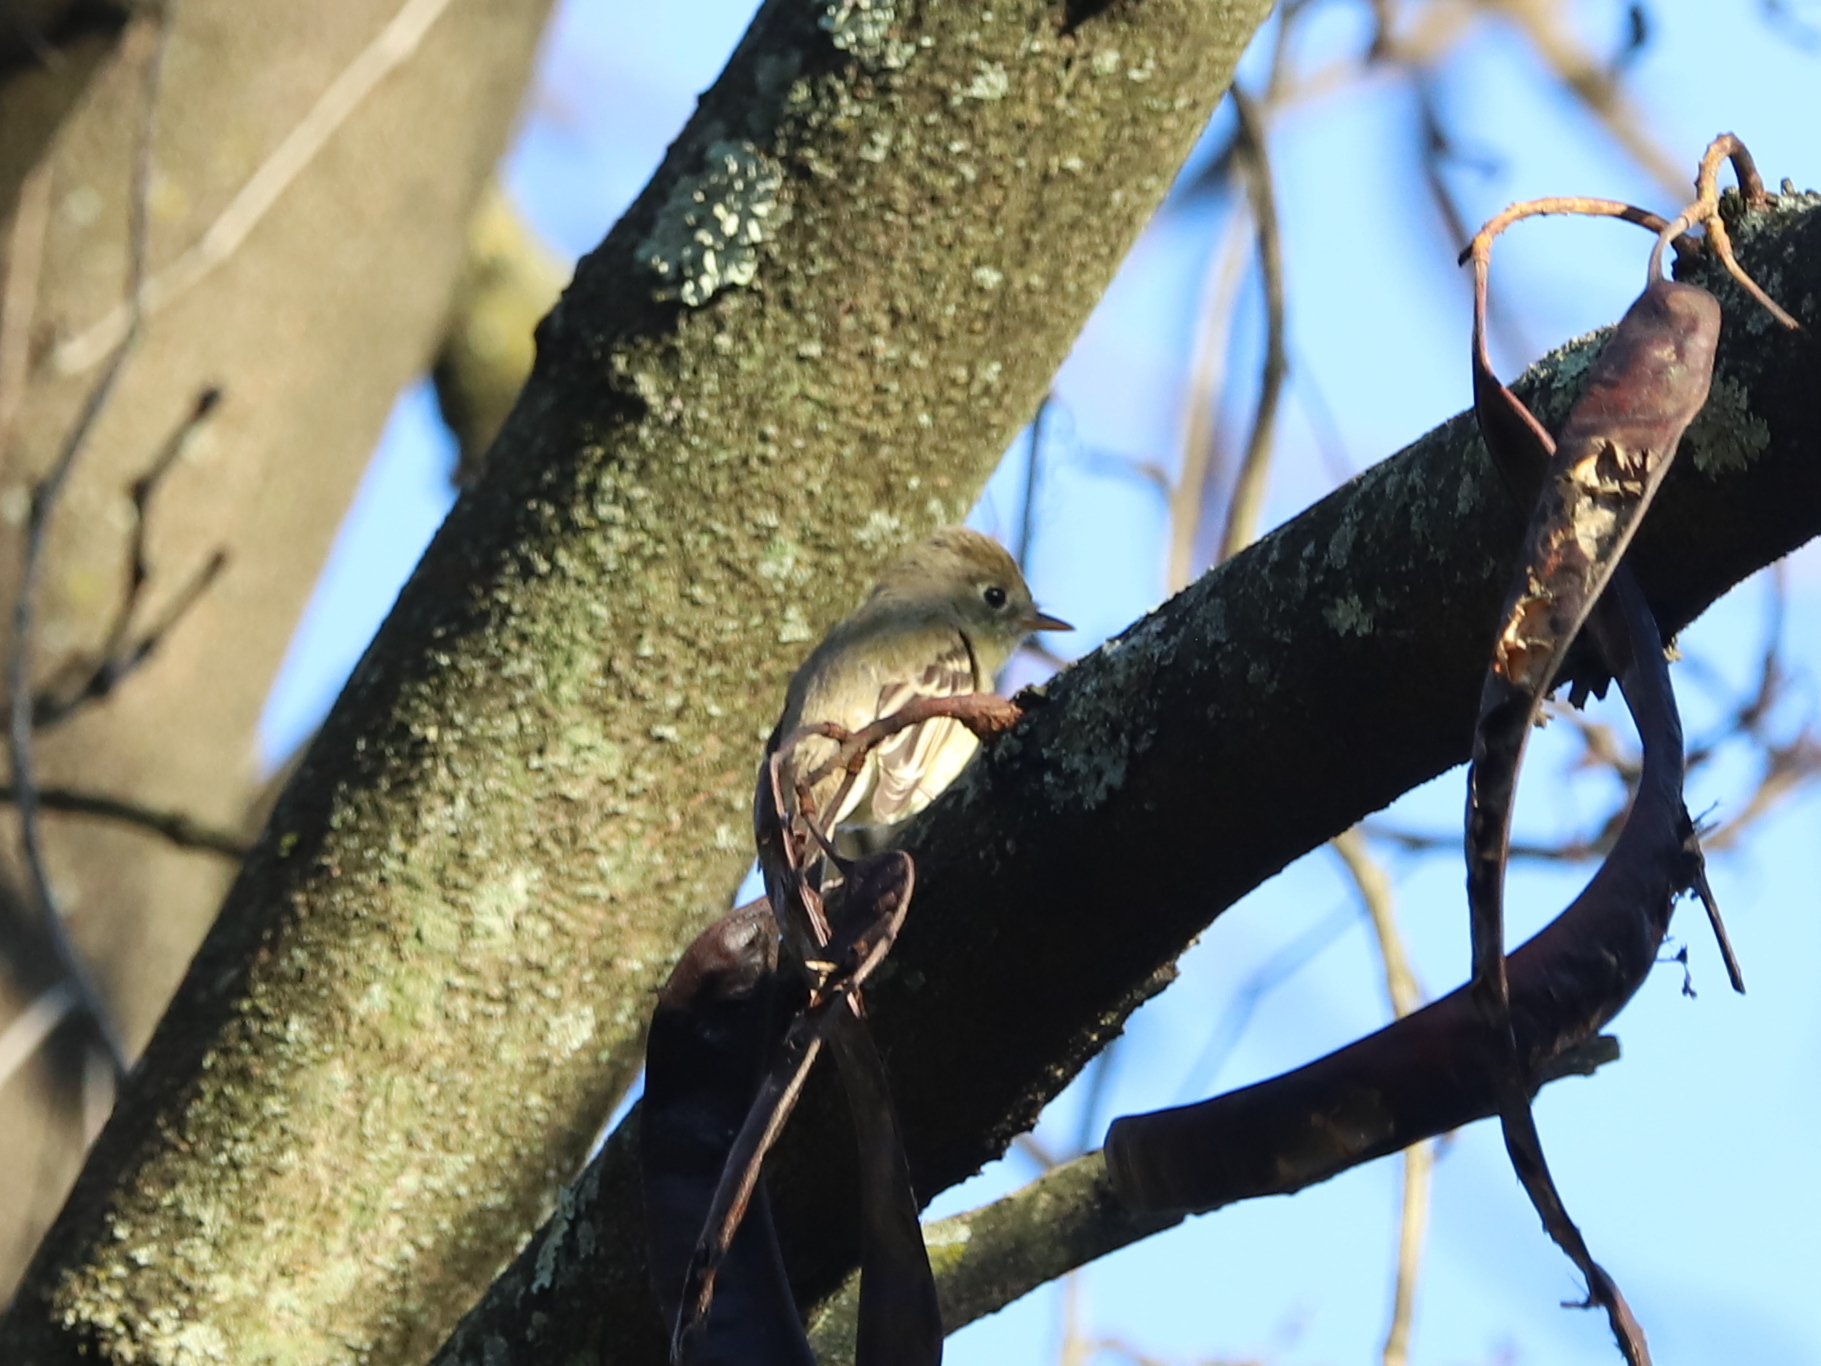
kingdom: Animalia
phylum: Chordata
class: Aves
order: Passeriformes
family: Tyrannidae
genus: Empidonax
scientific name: Empidonax difficilis
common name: Pacific-slope flycatcher
